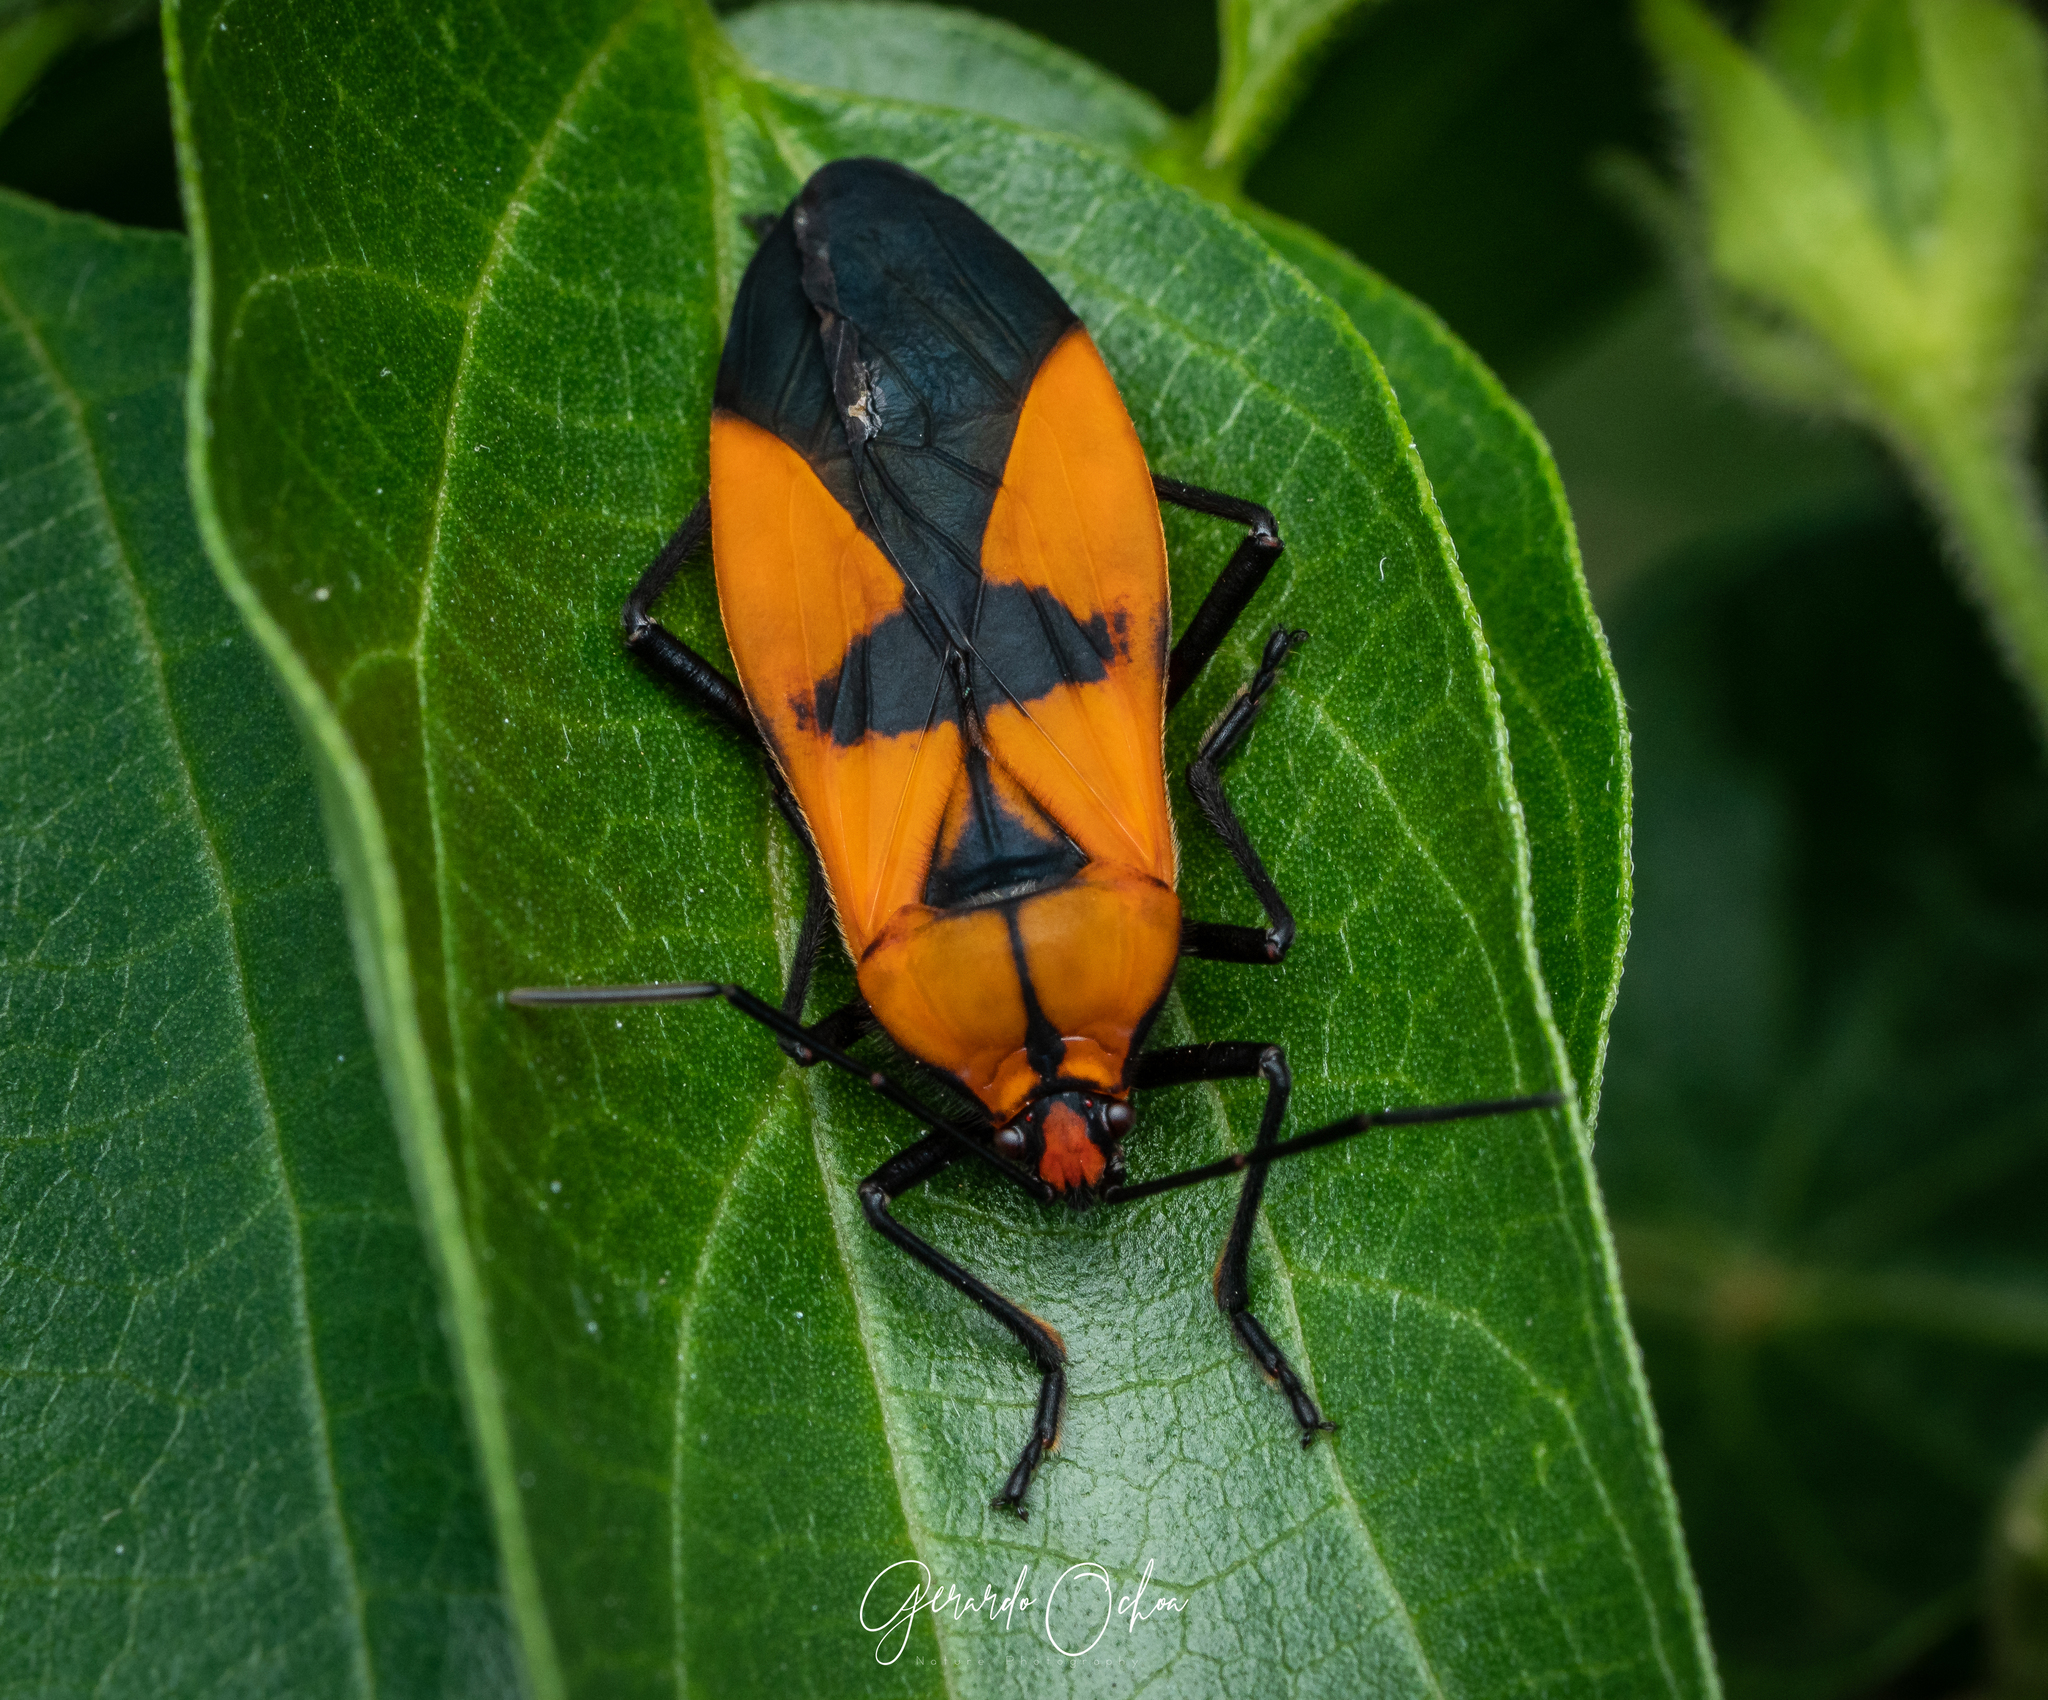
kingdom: Animalia
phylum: Arthropoda
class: Insecta
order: Hemiptera
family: Lygaeidae
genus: Oncopeltus
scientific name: Oncopeltus varicolor
